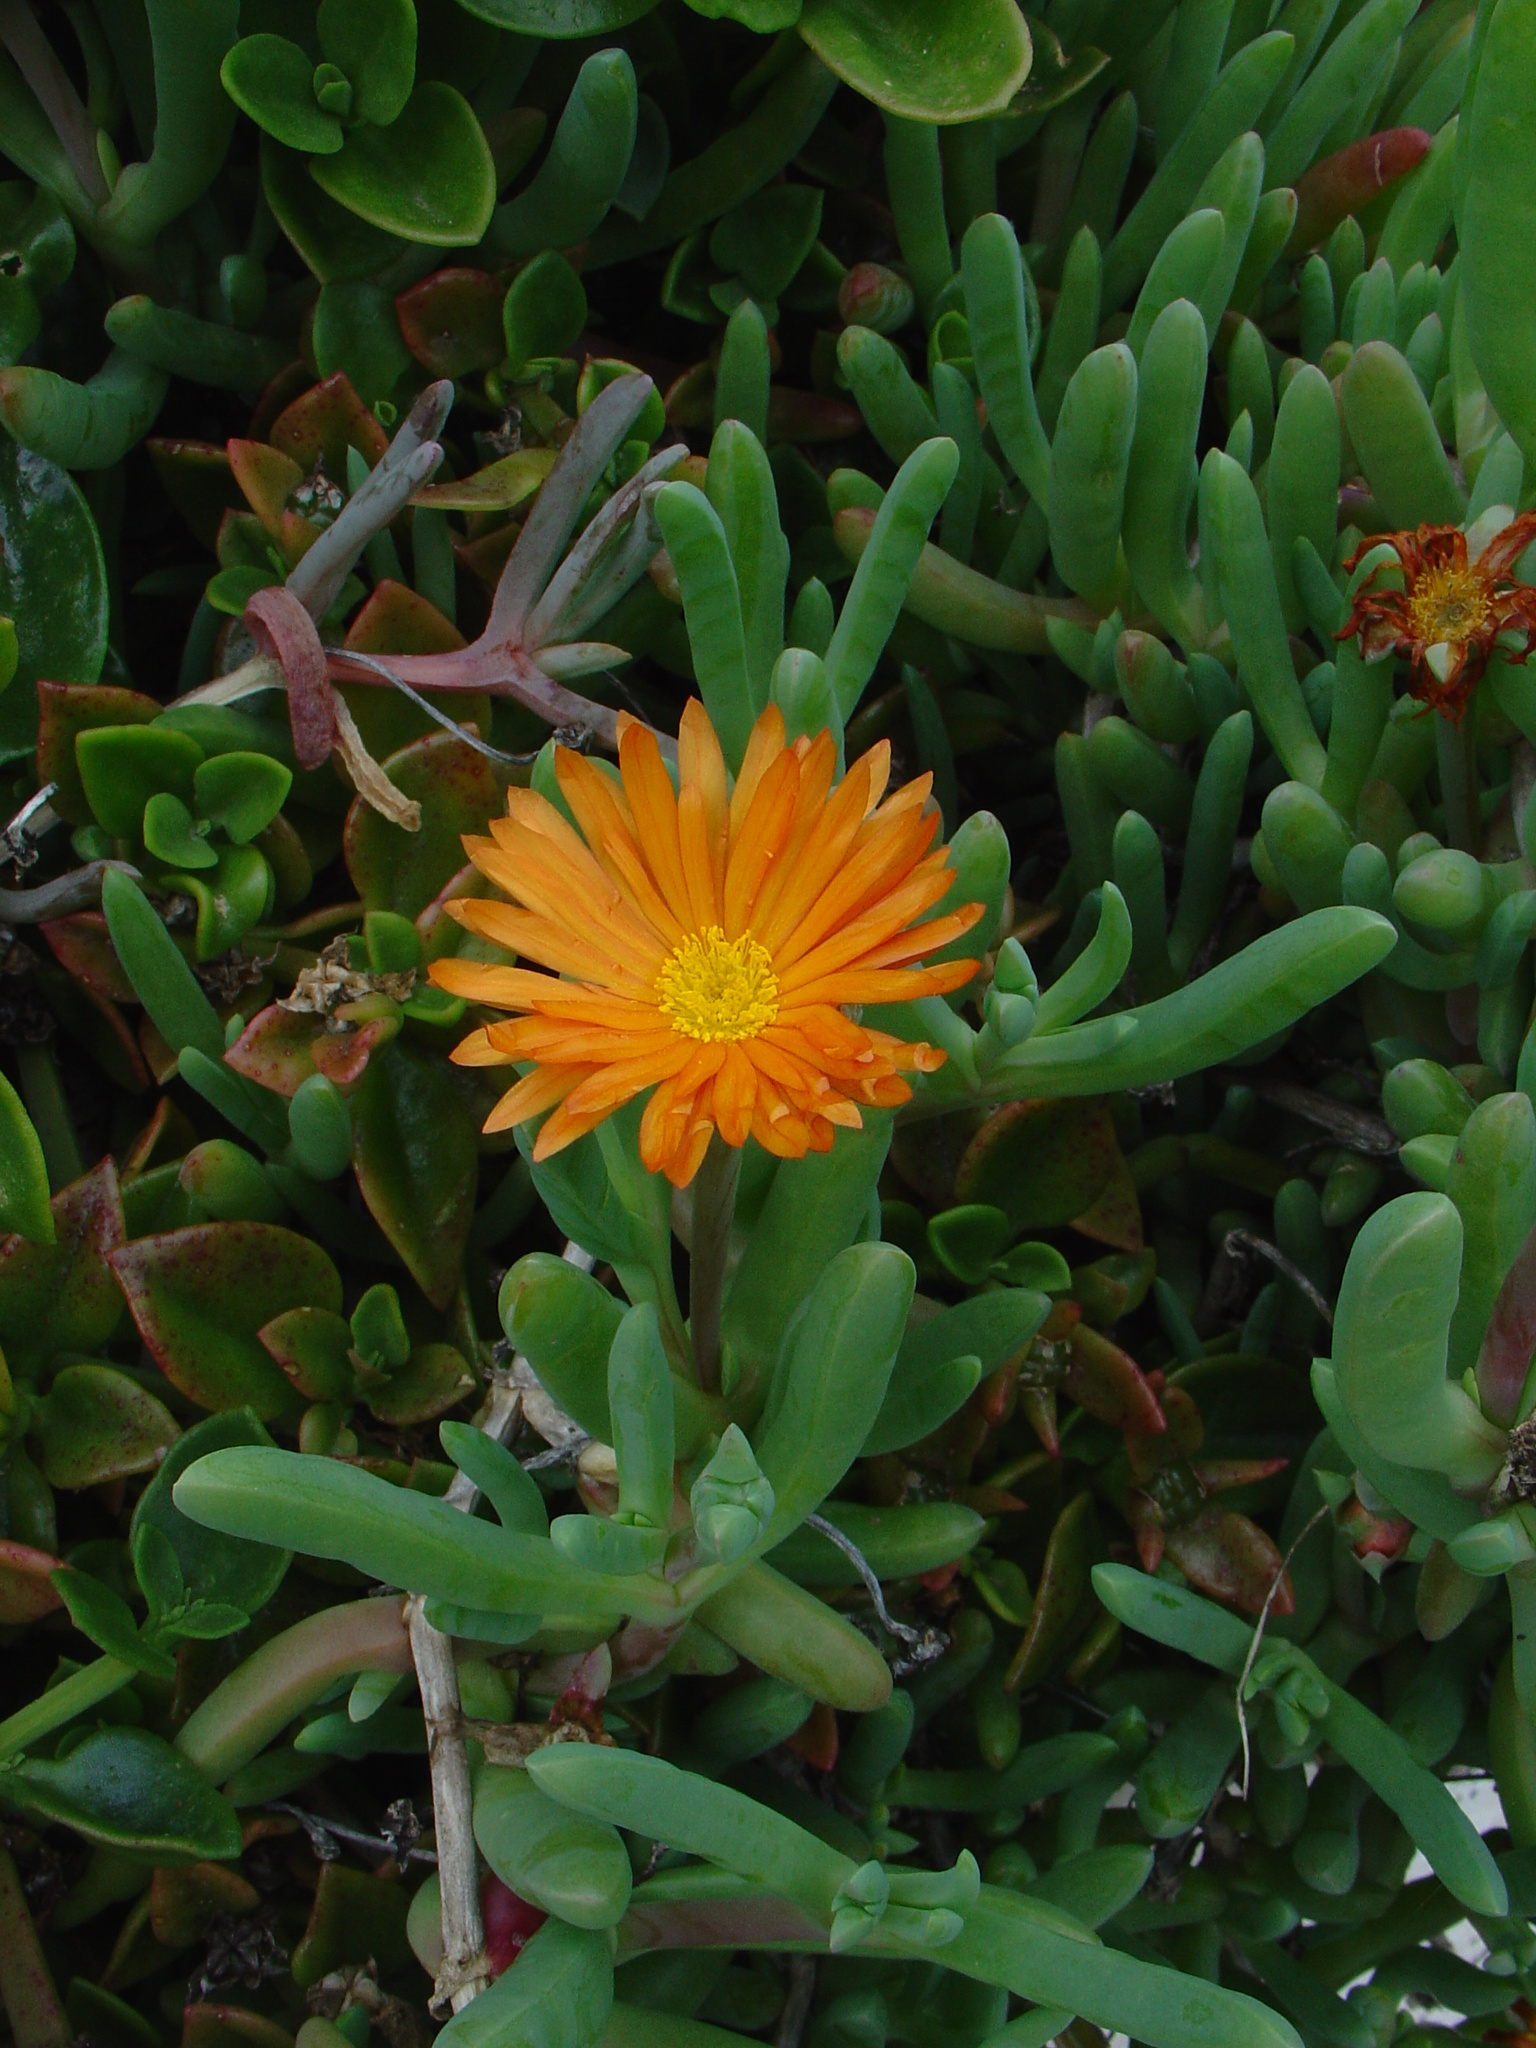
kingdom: Plantae
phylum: Tracheophyta
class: Magnoliopsida
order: Caryophyllales
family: Aizoaceae
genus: Malephora
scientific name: Malephora crocea
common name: Coppery mesemb
